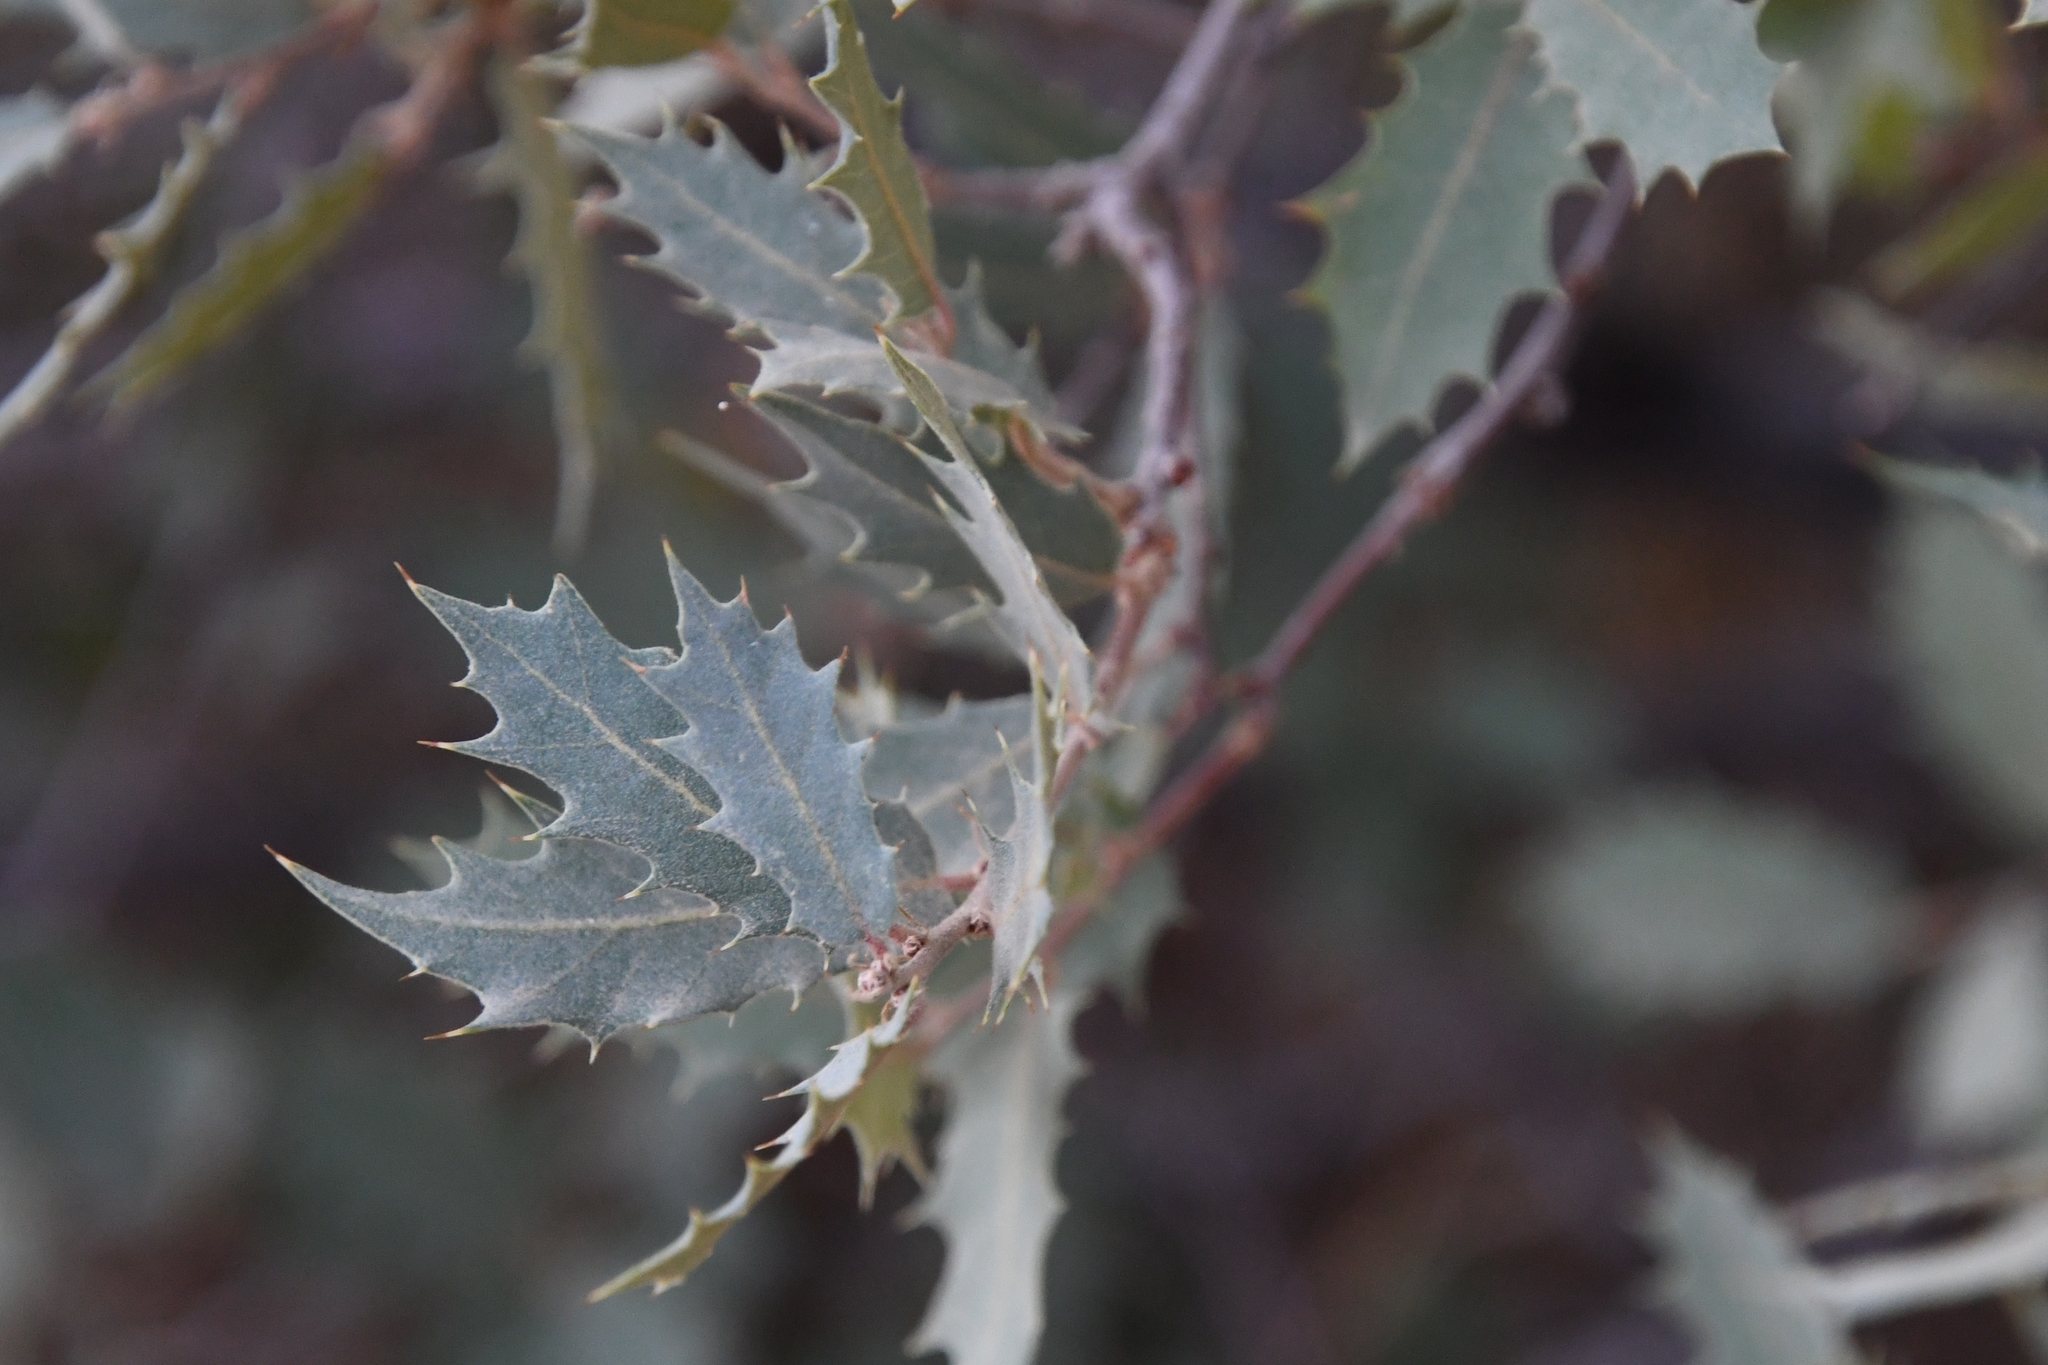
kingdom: Plantae
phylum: Tracheophyta
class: Magnoliopsida
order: Fagales
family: Fagaceae
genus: Quercus
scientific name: Quercus turbinella
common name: Sonoran scrub oak
